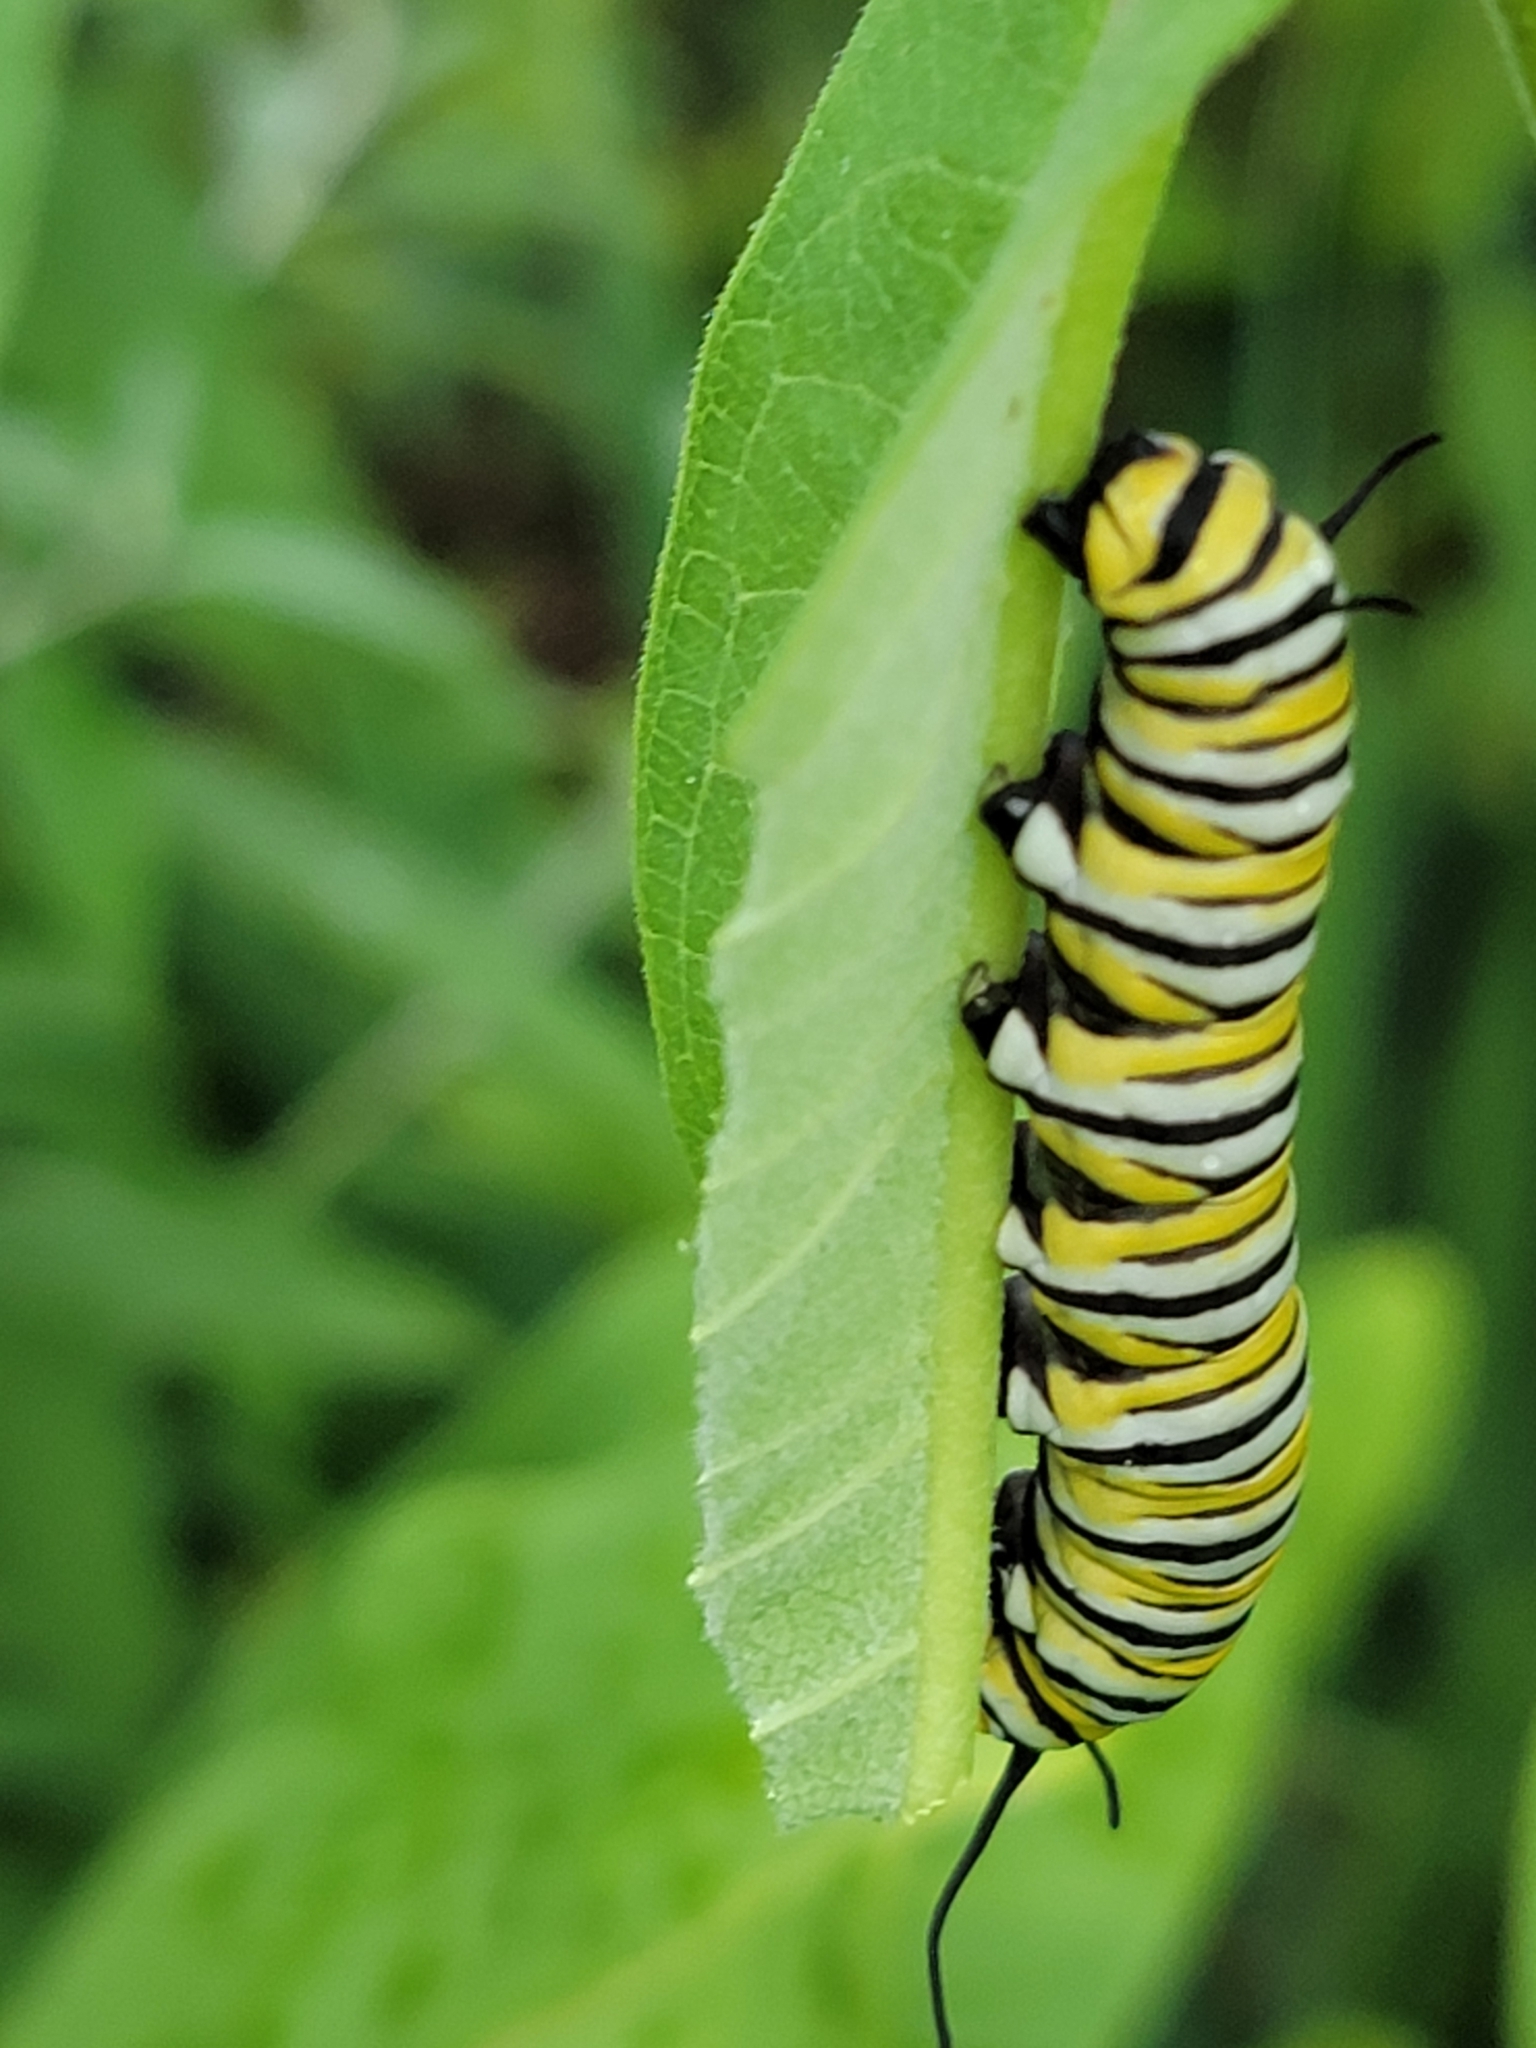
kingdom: Animalia
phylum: Arthropoda
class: Insecta
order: Lepidoptera
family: Nymphalidae
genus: Danaus
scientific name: Danaus plexippus
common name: Monarch
